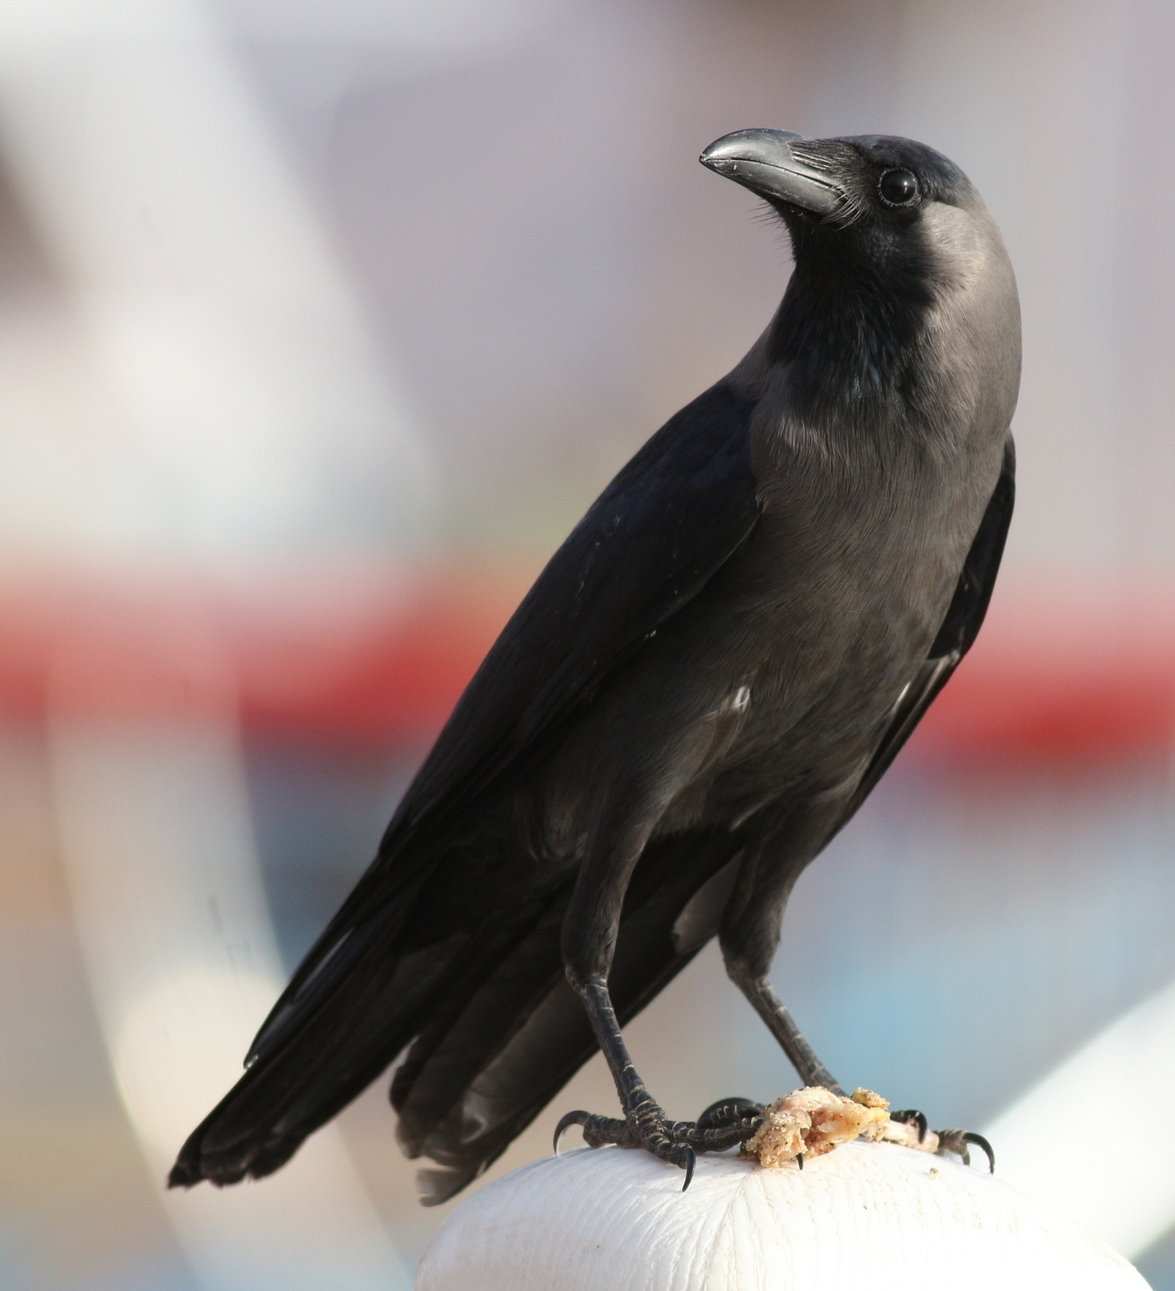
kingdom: Animalia
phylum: Chordata
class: Aves
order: Passeriformes
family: Corvidae
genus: Corvus
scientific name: Corvus splendens
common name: House crow
